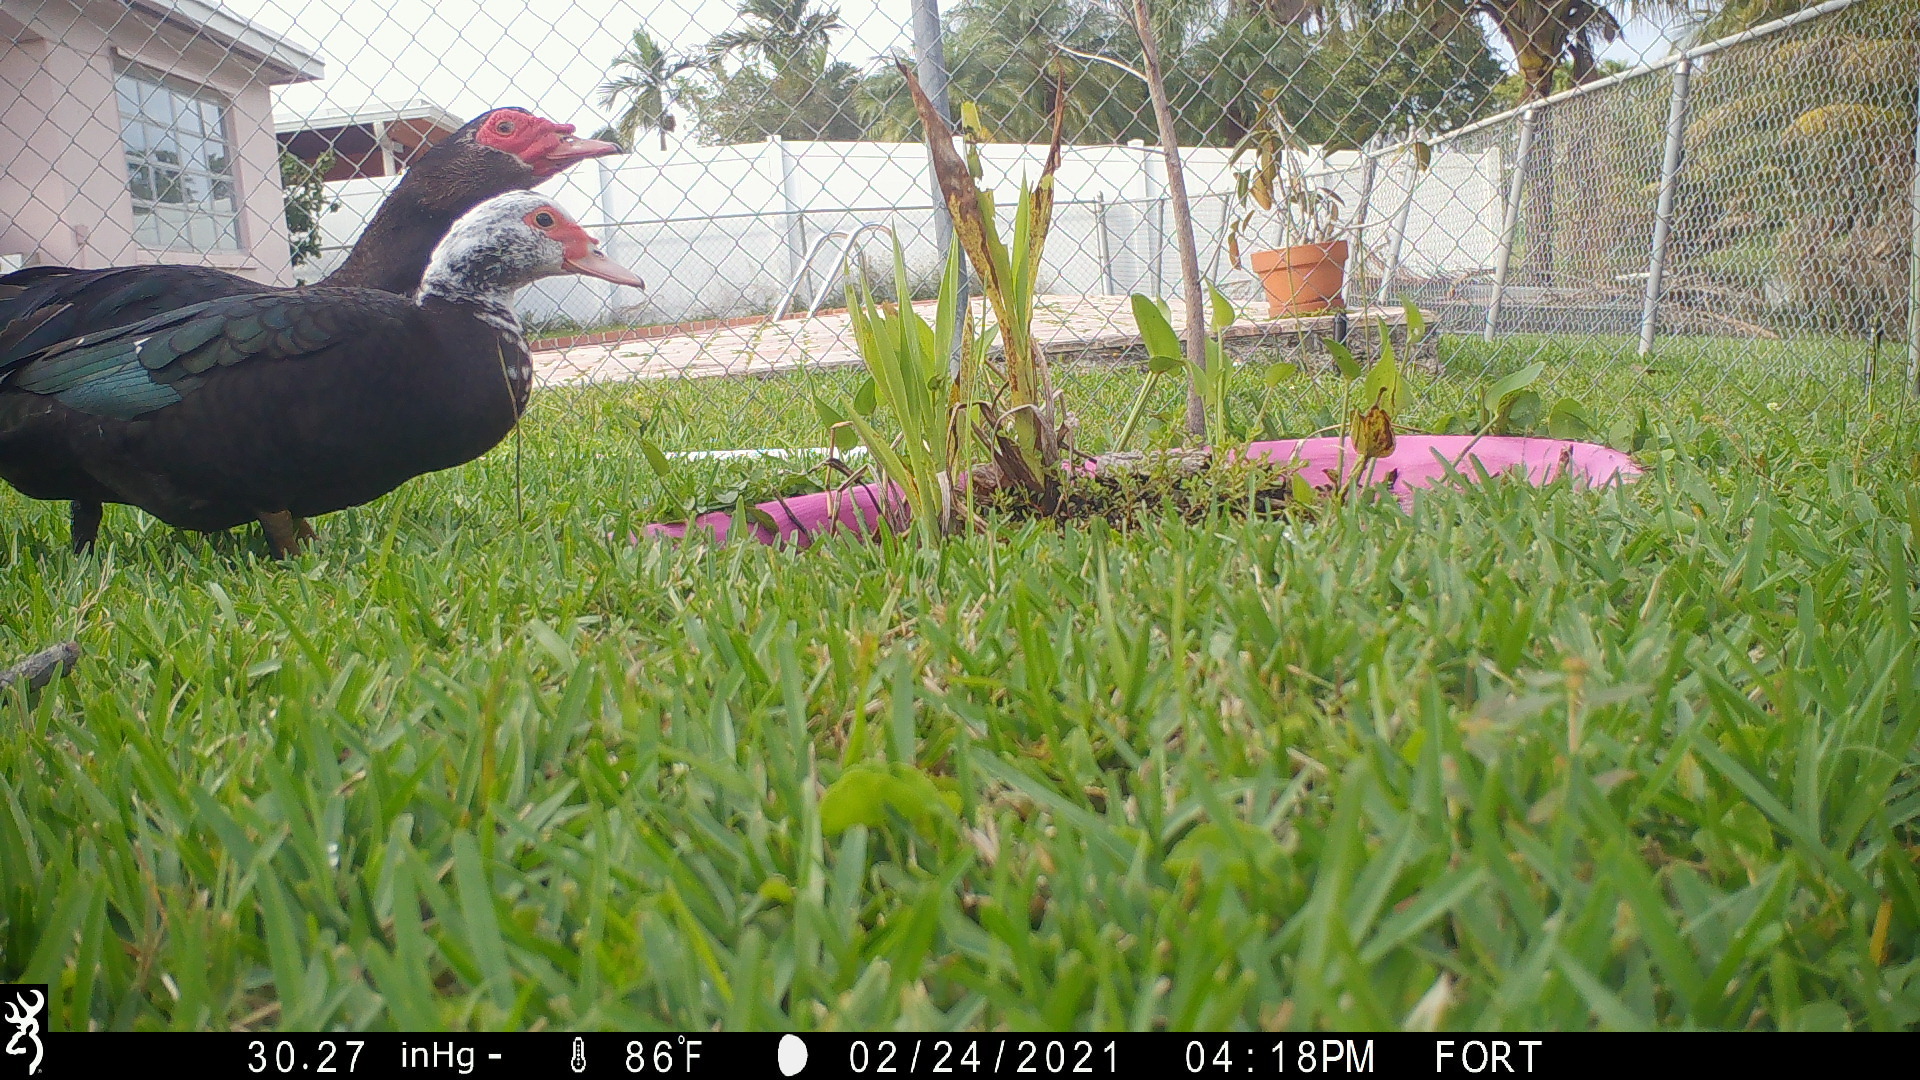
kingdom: Animalia
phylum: Chordata
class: Aves
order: Anseriformes
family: Anatidae
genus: Cairina
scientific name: Cairina moschata
